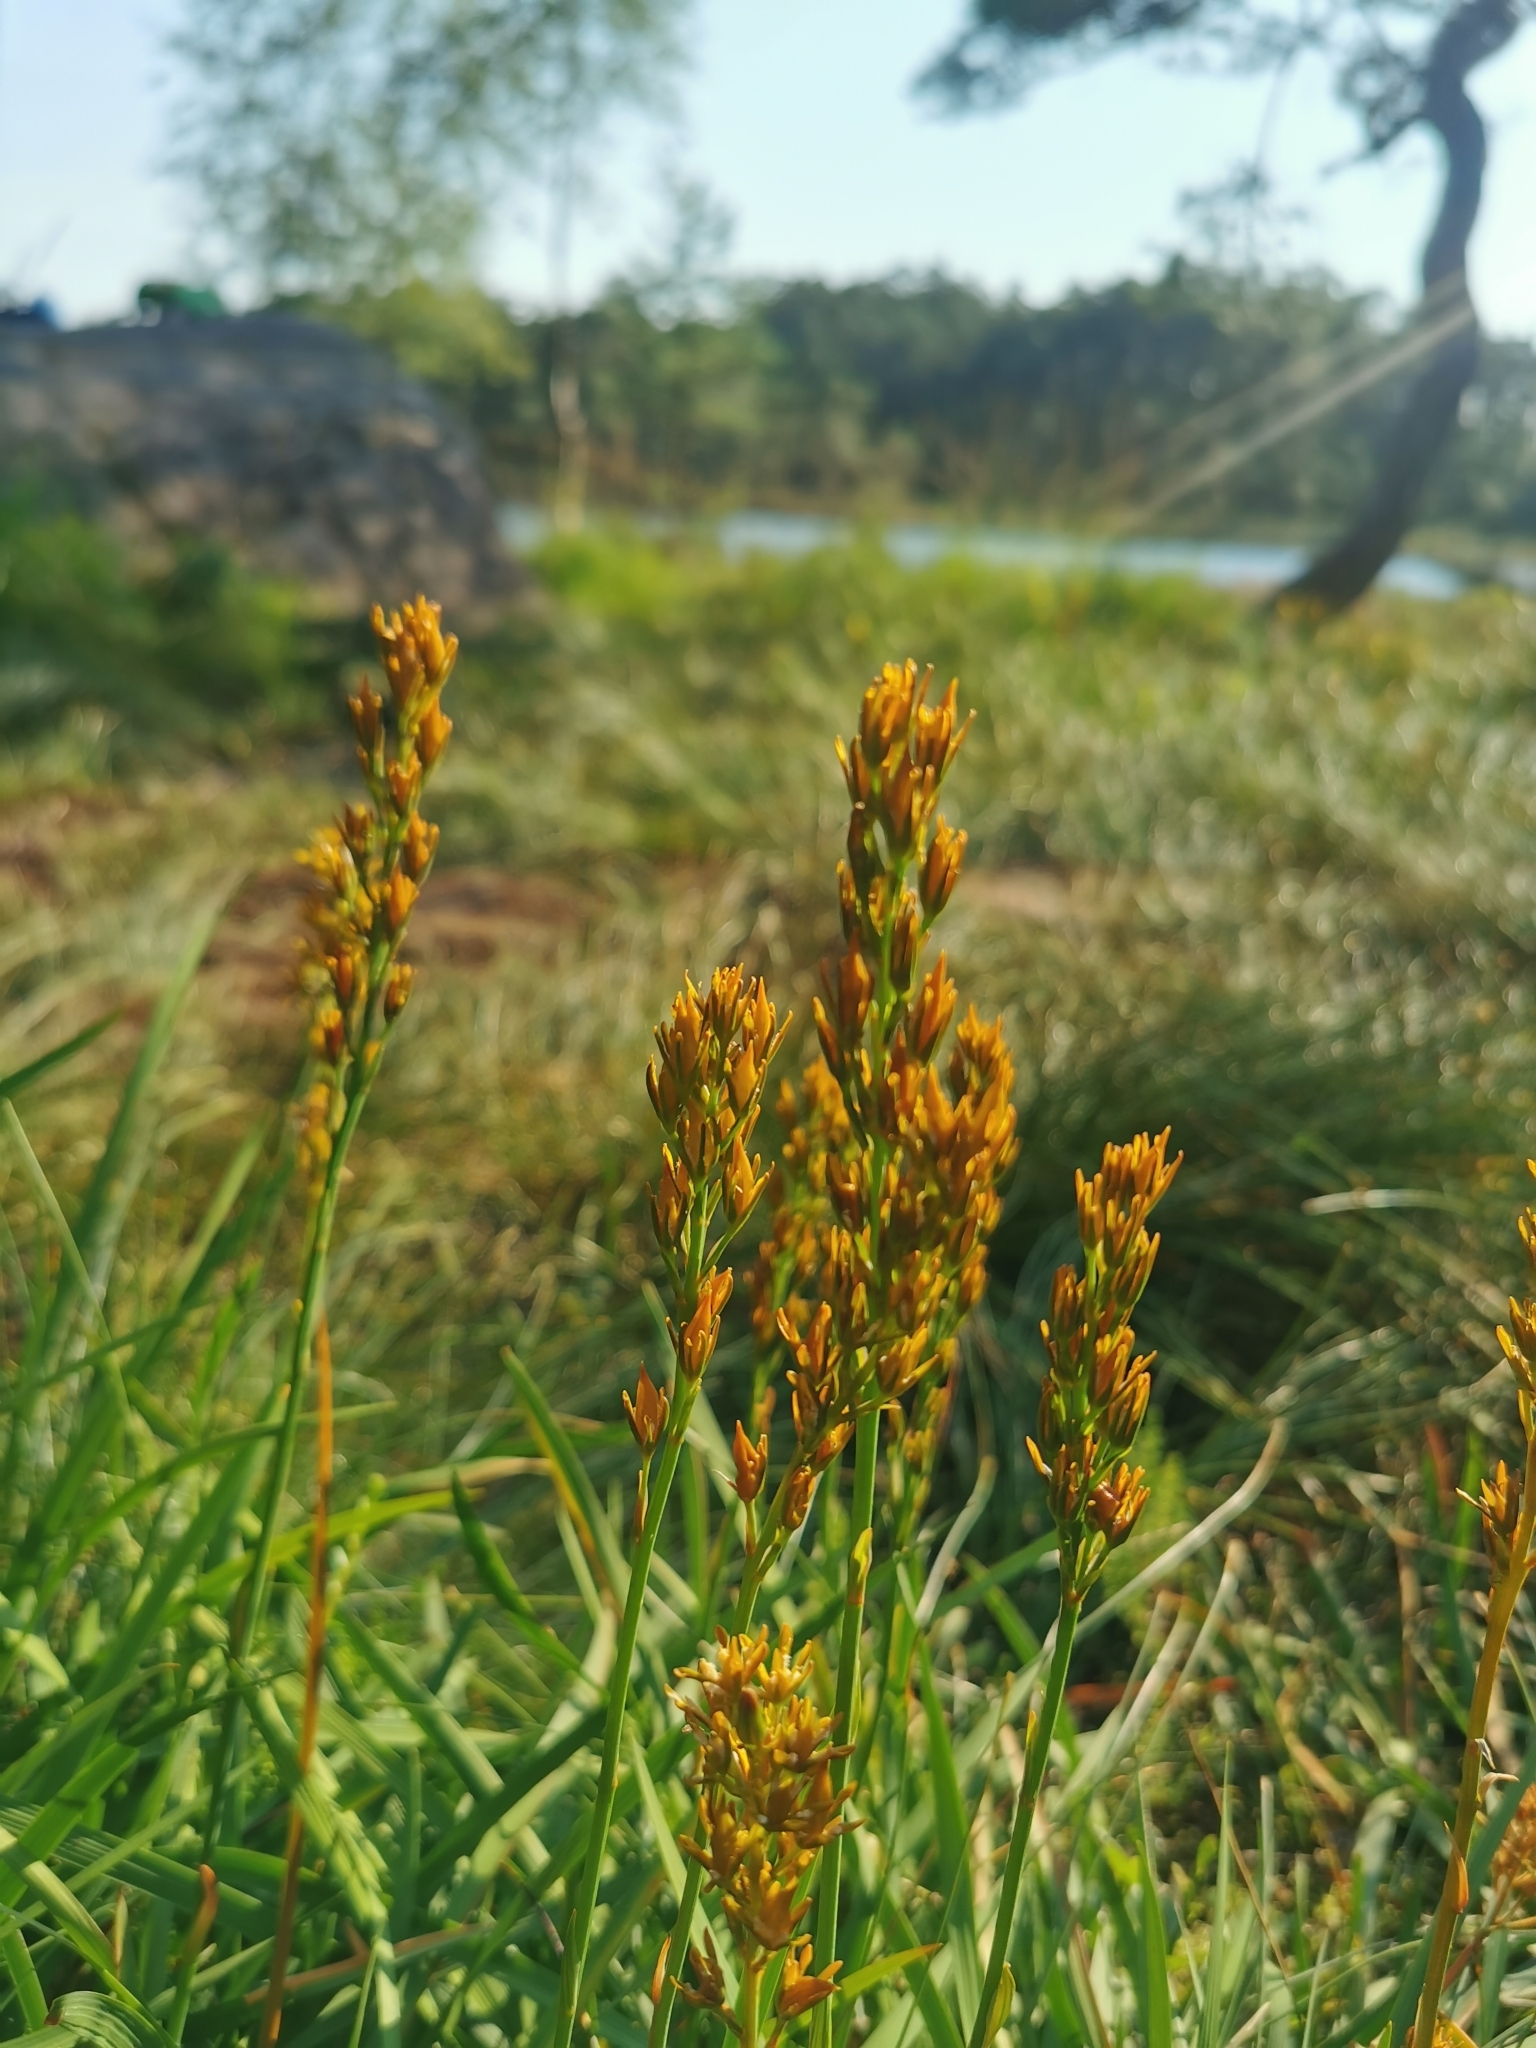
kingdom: Plantae
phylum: Tracheophyta
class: Liliopsida
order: Dioscoreales
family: Nartheciaceae
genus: Narthecium
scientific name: Narthecium ossifragum
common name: Bog asphodel
